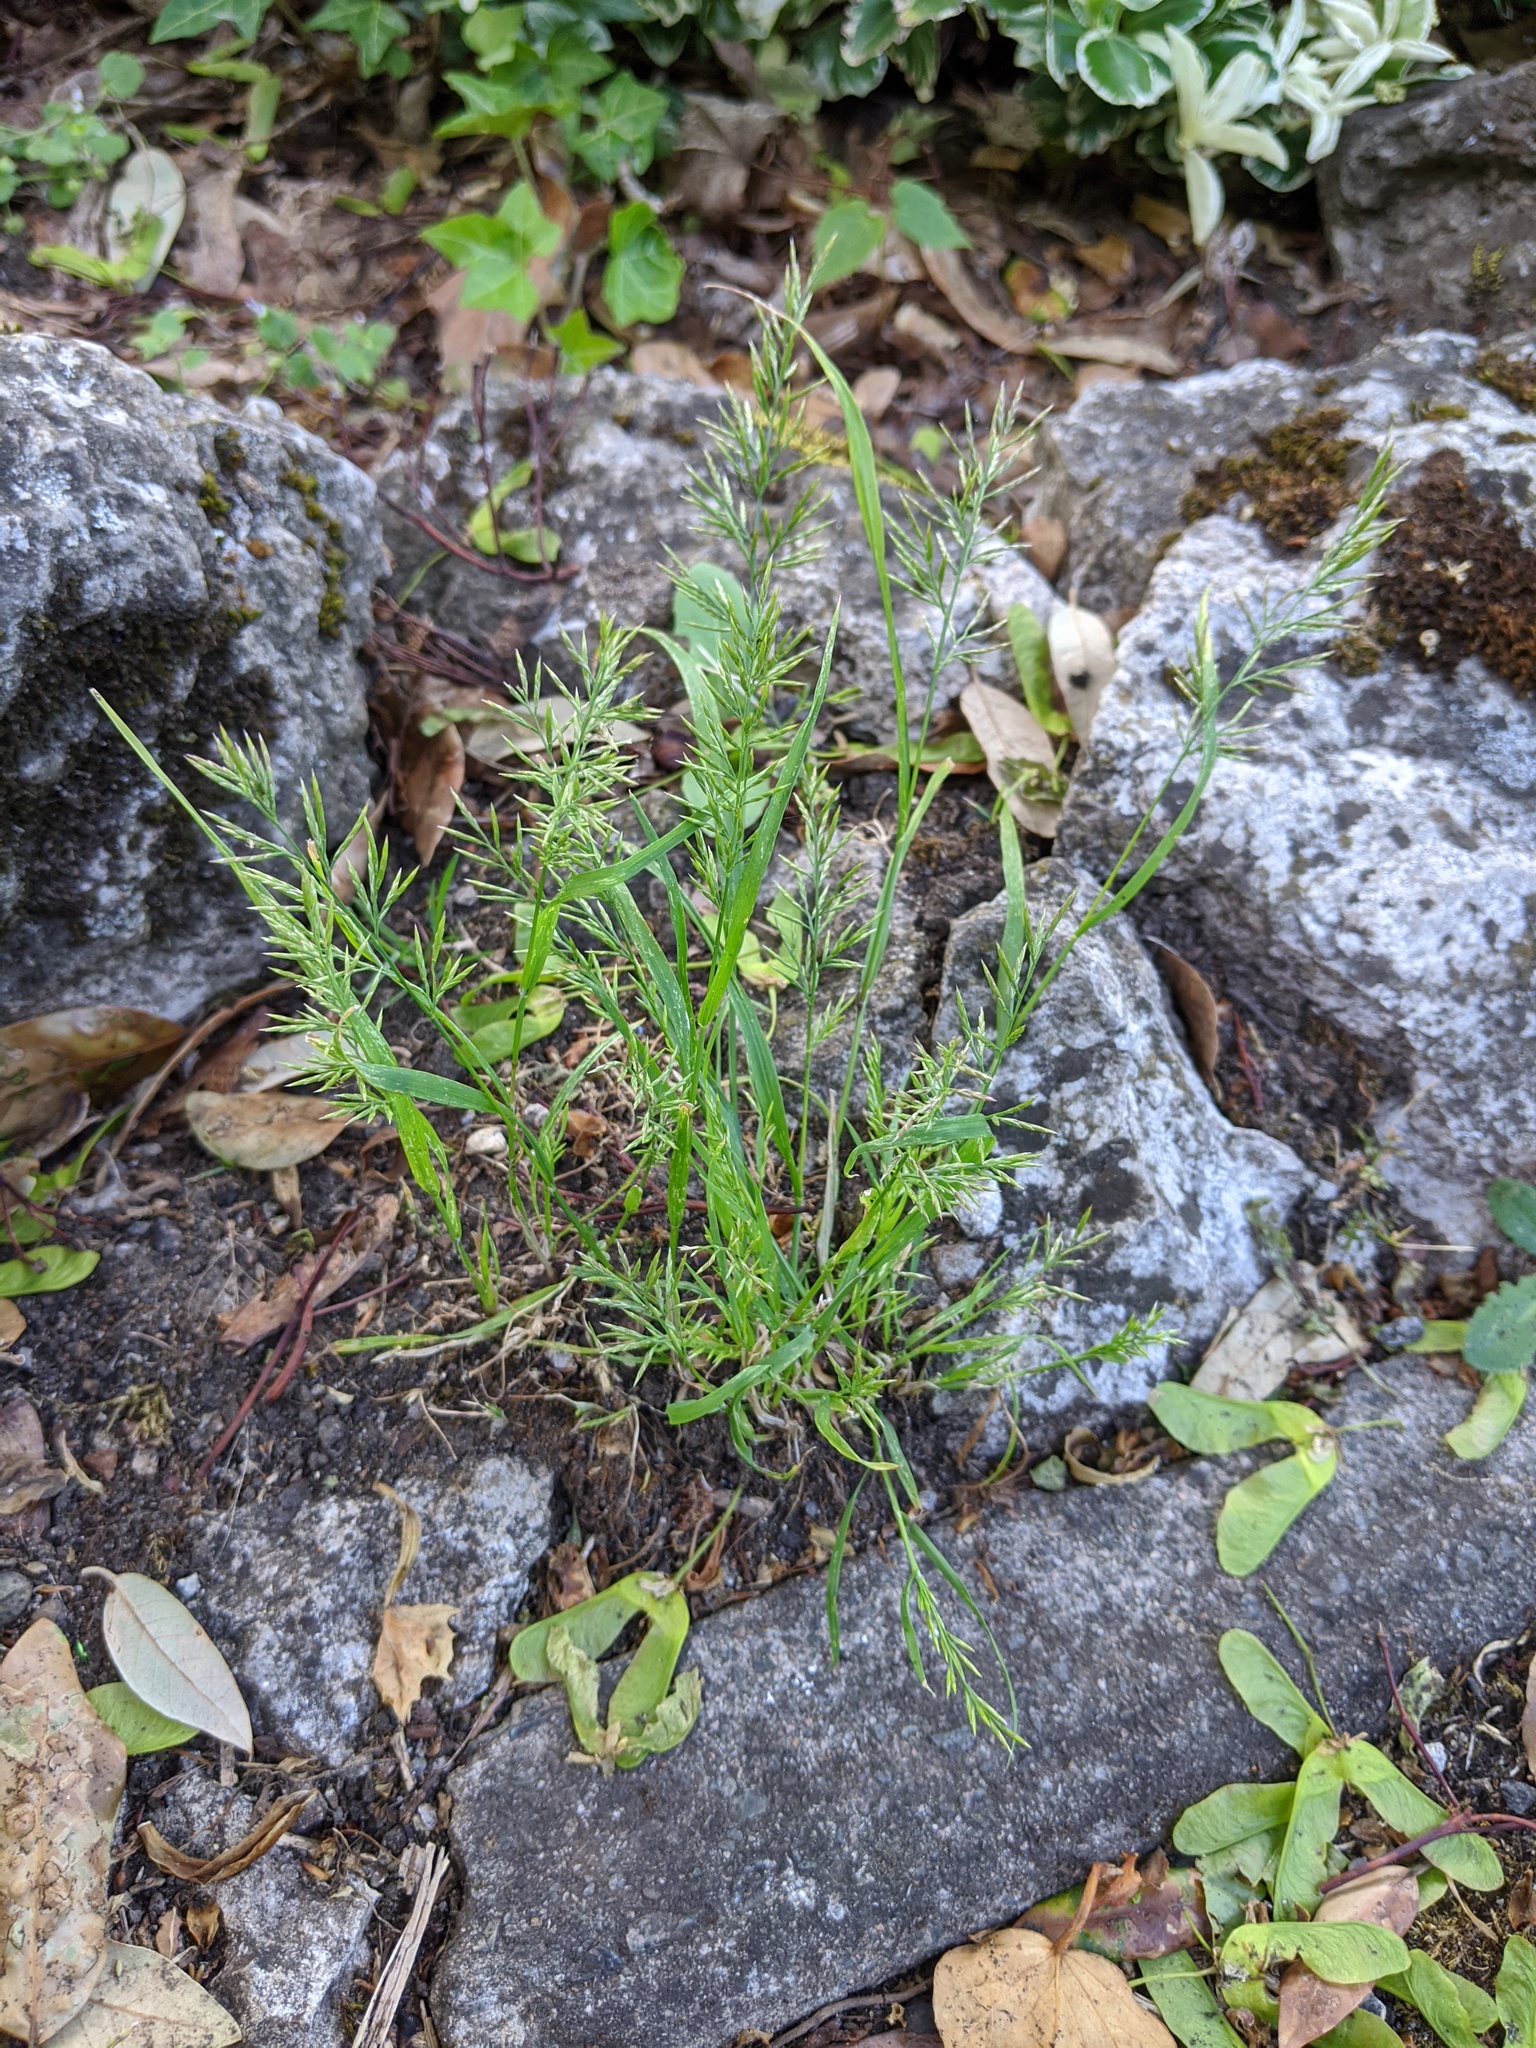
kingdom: Plantae
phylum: Tracheophyta
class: Liliopsida
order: Poales
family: Poaceae
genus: Catapodium
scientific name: Catapodium rigidum
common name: Fern-grass
